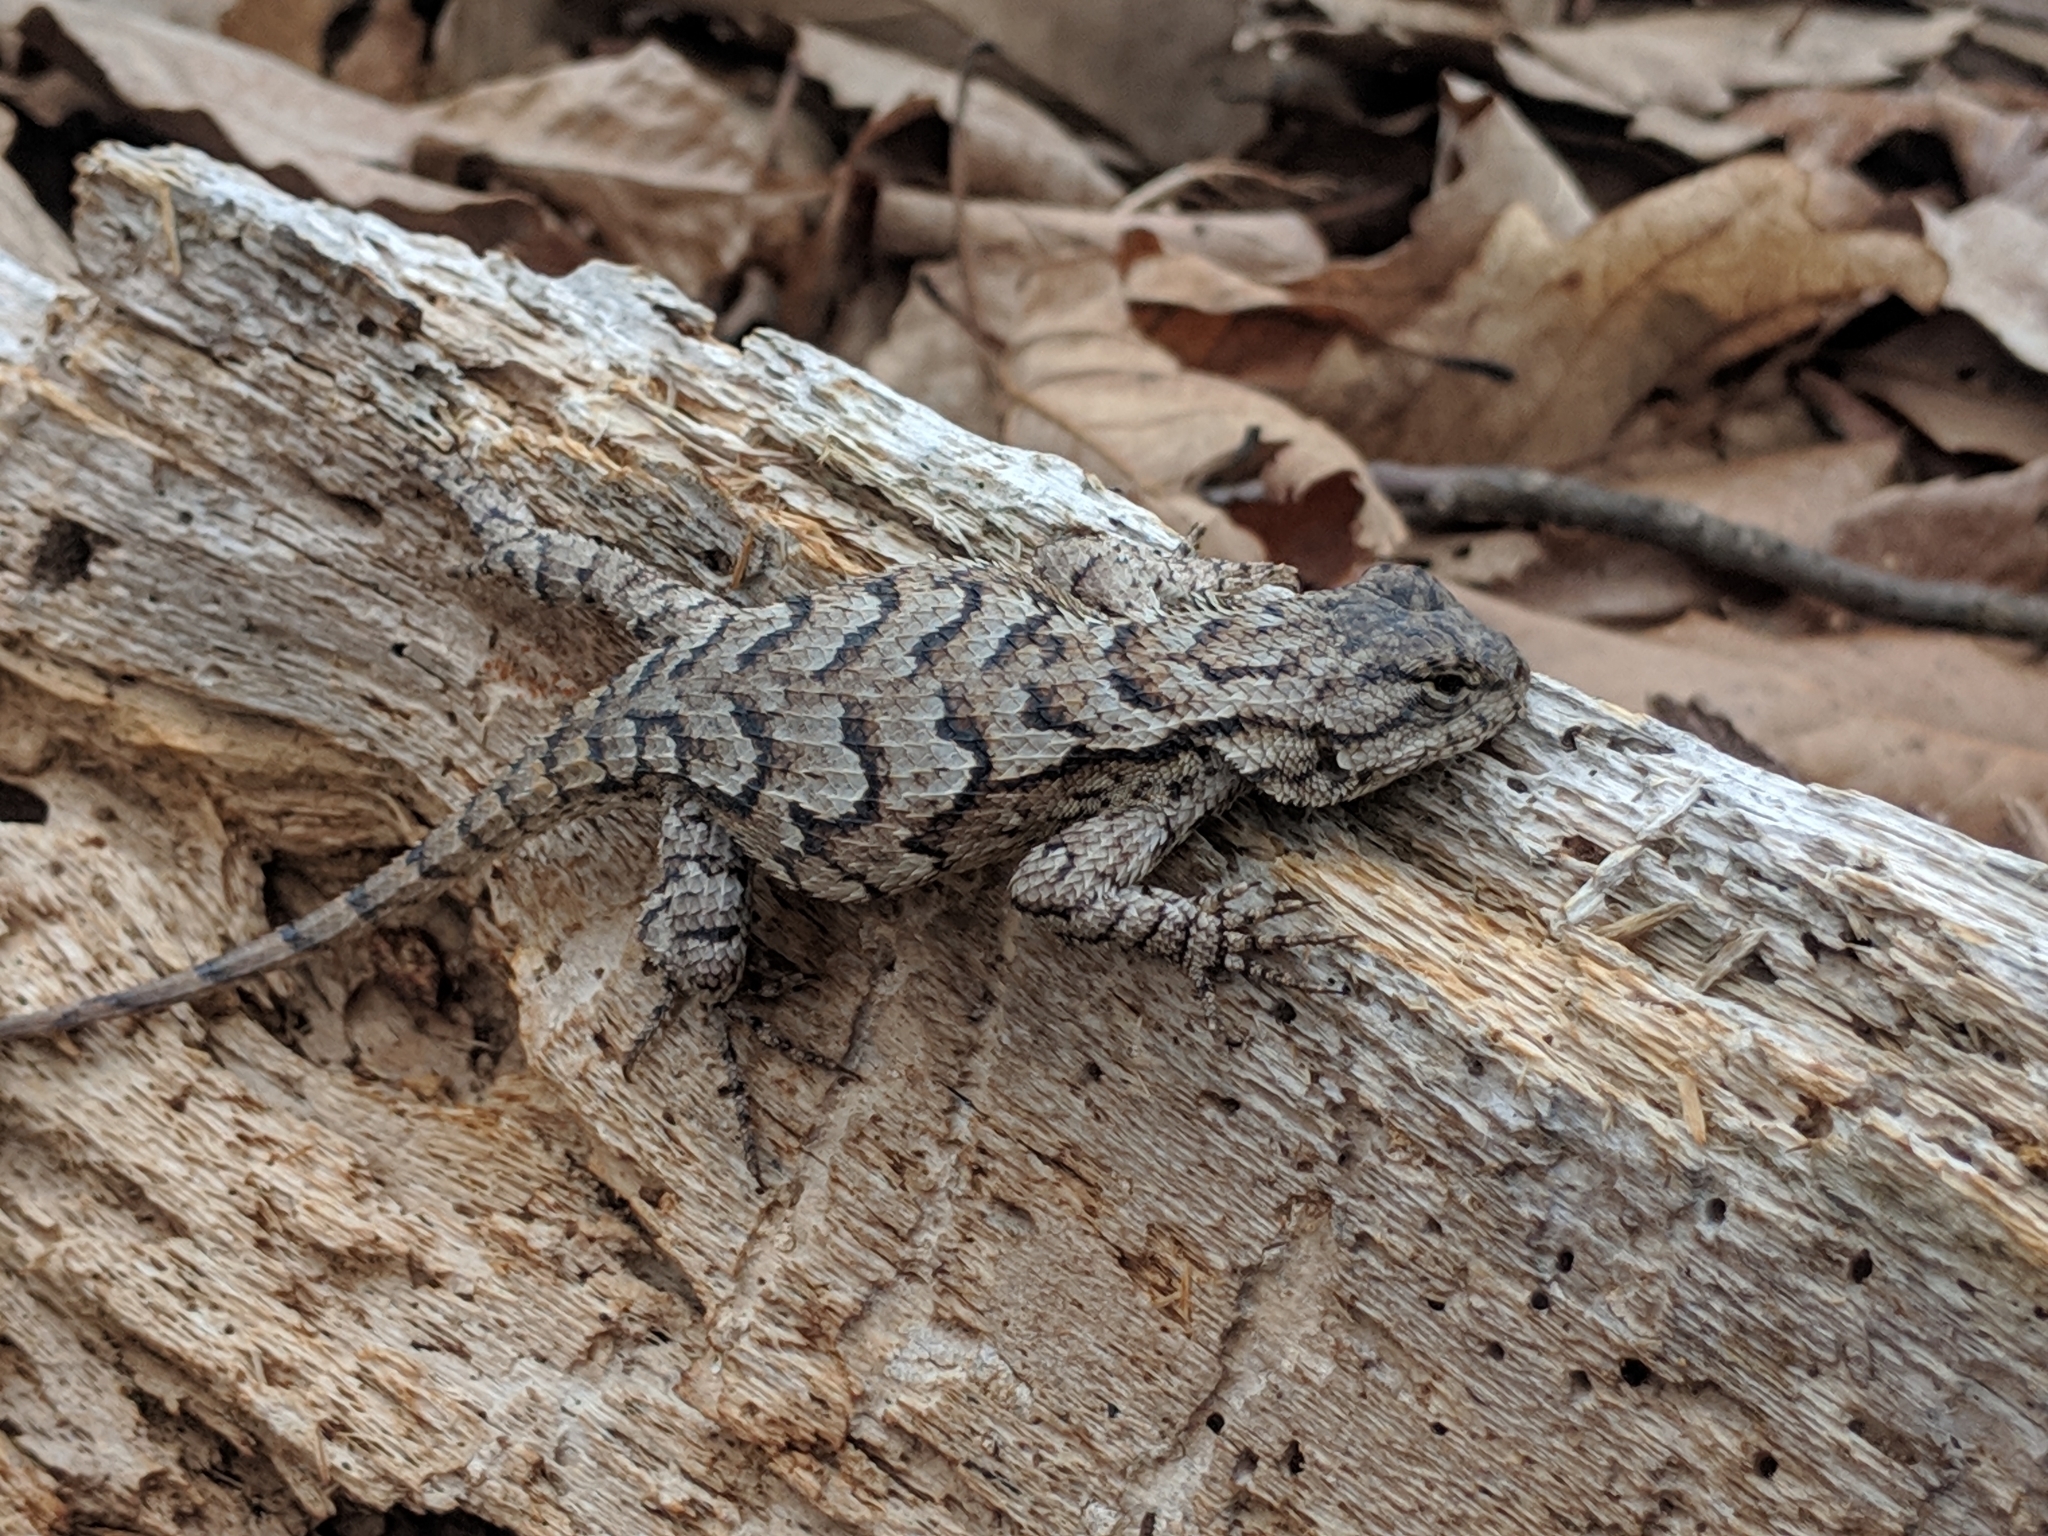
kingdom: Animalia
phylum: Chordata
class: Squamata
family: Phrynosomatidae
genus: Sceloporus
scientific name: Sceloporus undulatus
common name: Eastern fence lizard
